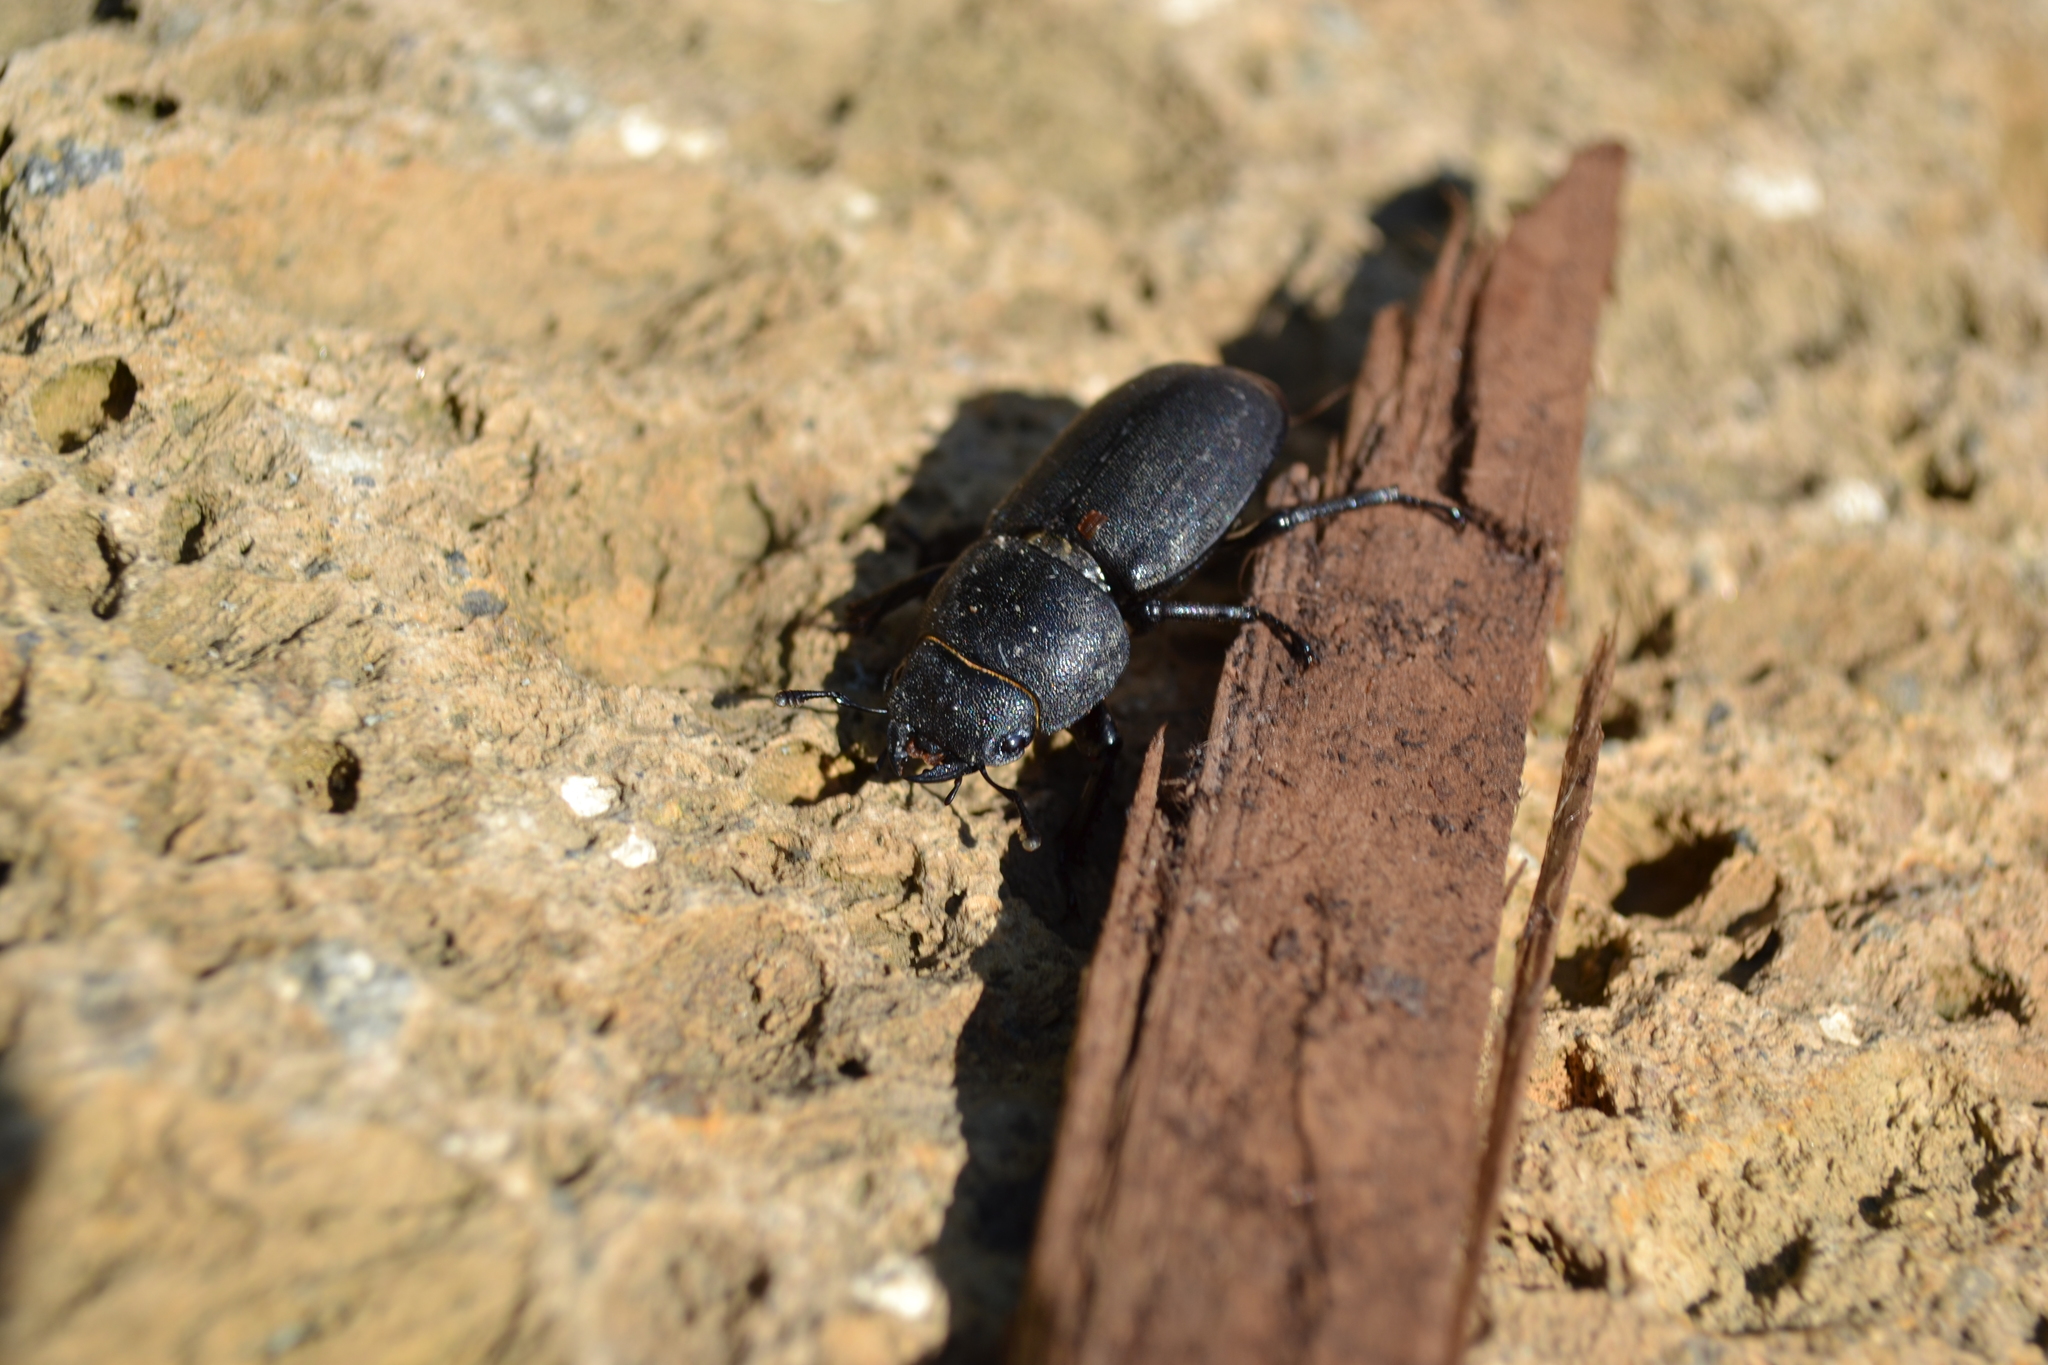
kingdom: Animalia
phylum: Arthropoda
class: Insecta
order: Coleoptera
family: Lucanidae
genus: Dorcus
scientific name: Dorcus parallelipipedus
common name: Lesser stag beetle
